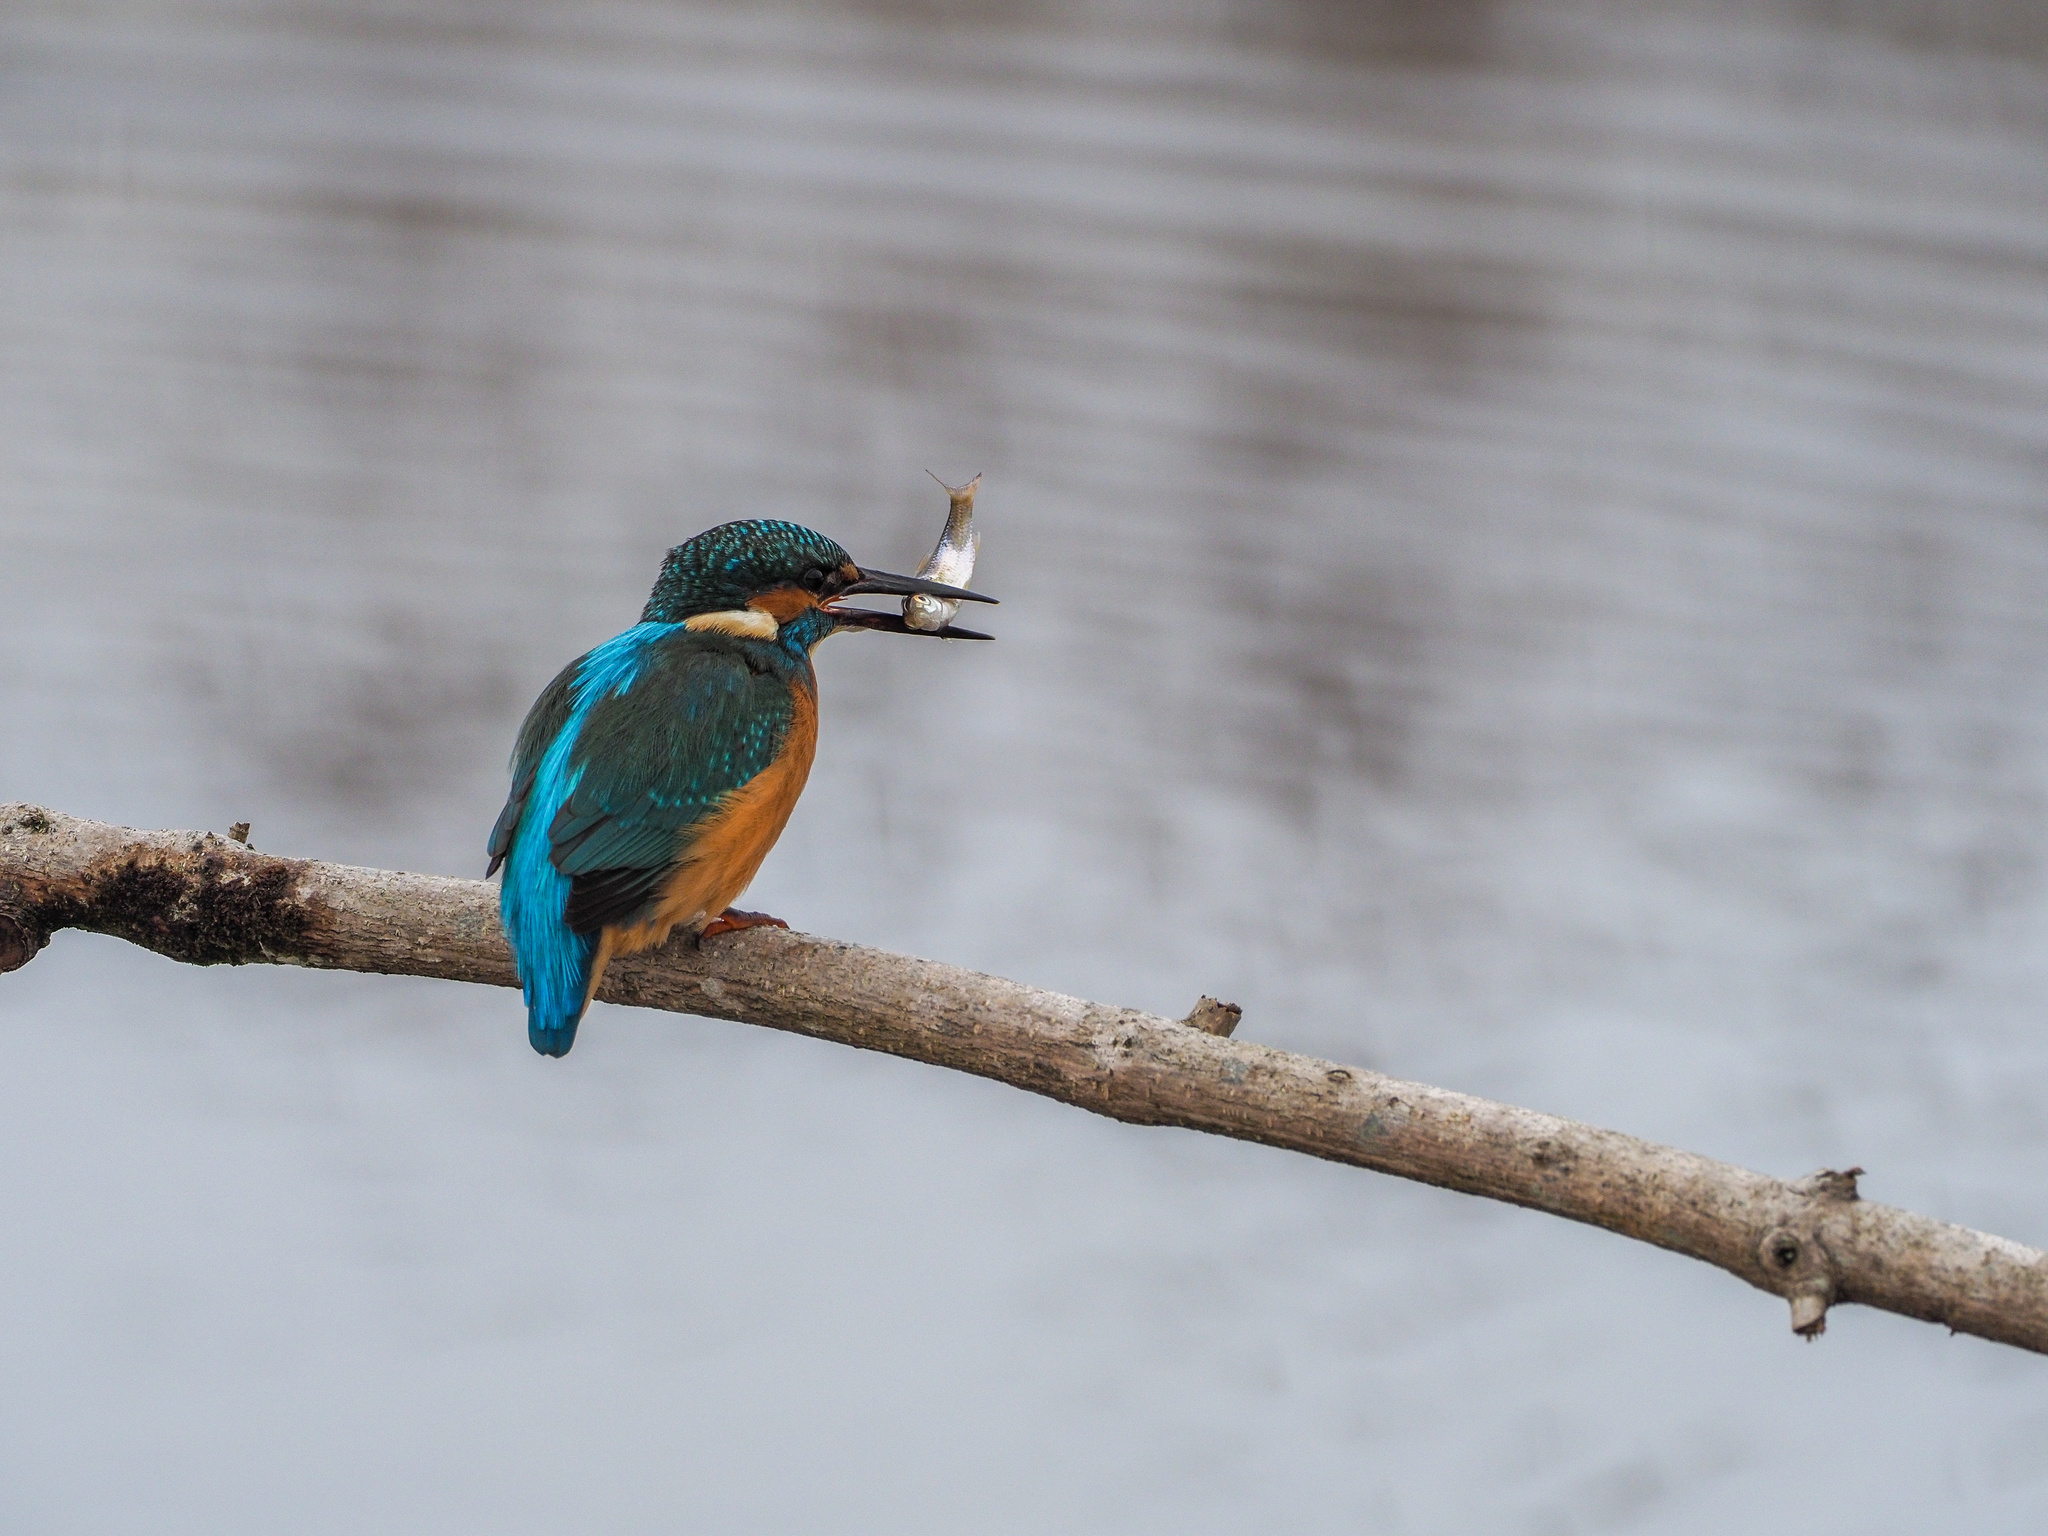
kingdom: Animalia
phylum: Chordata
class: Aves
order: Coraciiformes
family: Alcedinidae
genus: Alcedo
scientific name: Alcedo atthis
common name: Common kingfisher
